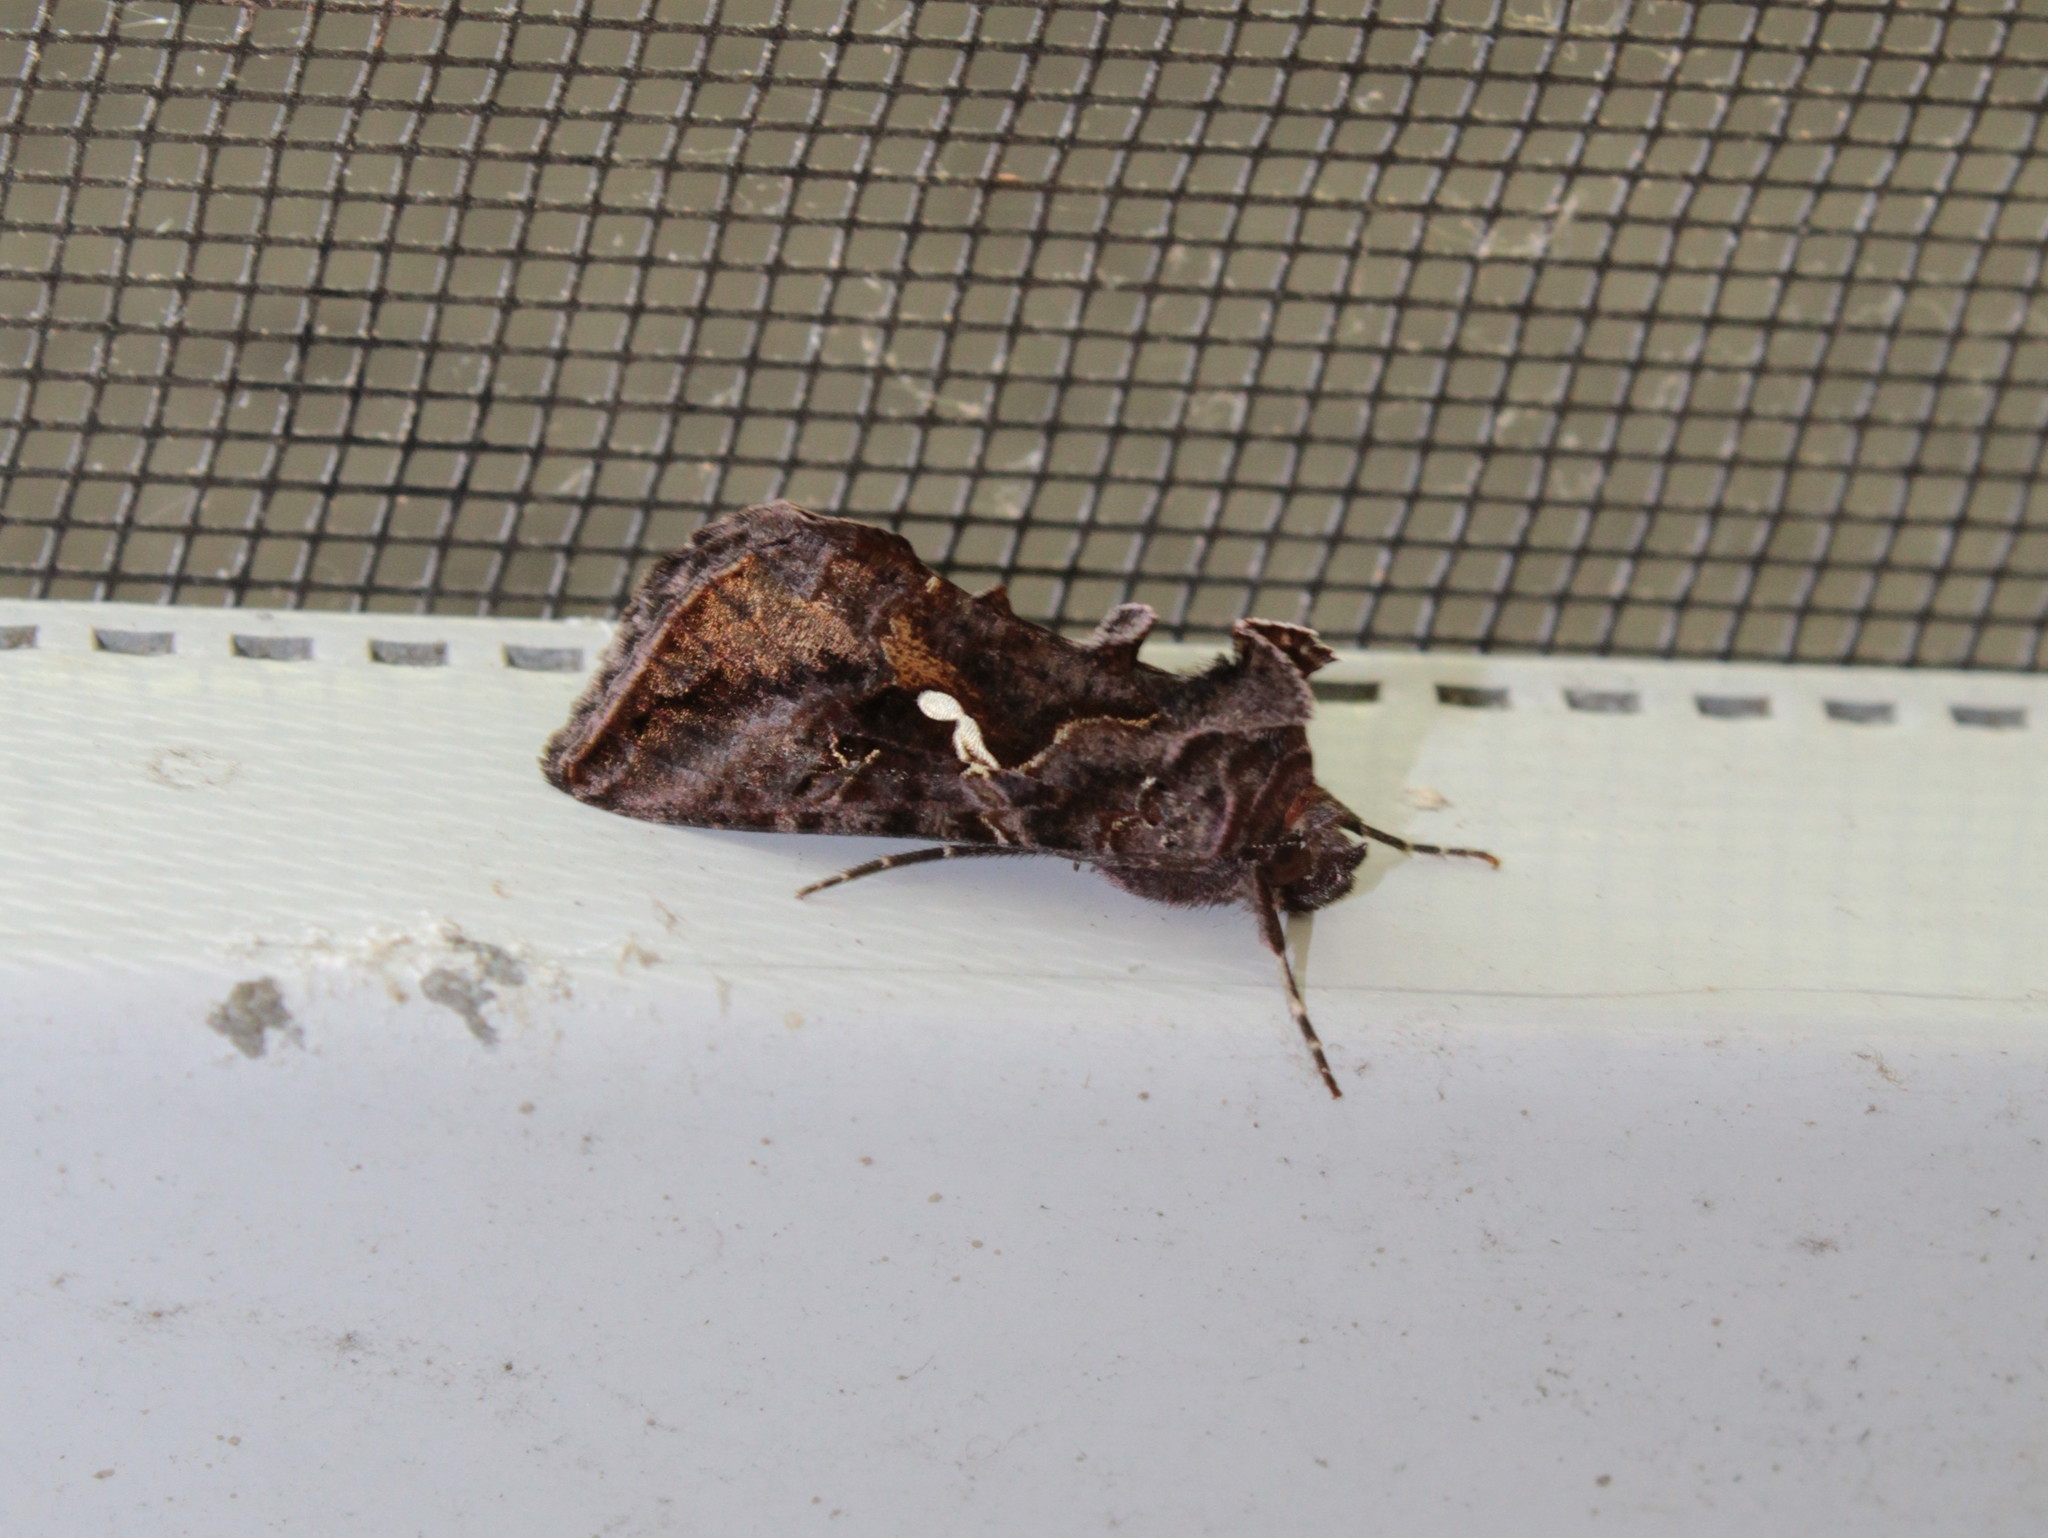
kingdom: Animalia
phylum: Arthropoda
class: Insecta
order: Lepidoptera
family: Noctuidae
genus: Autographa
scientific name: Autographa precationis
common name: Common looper moth
